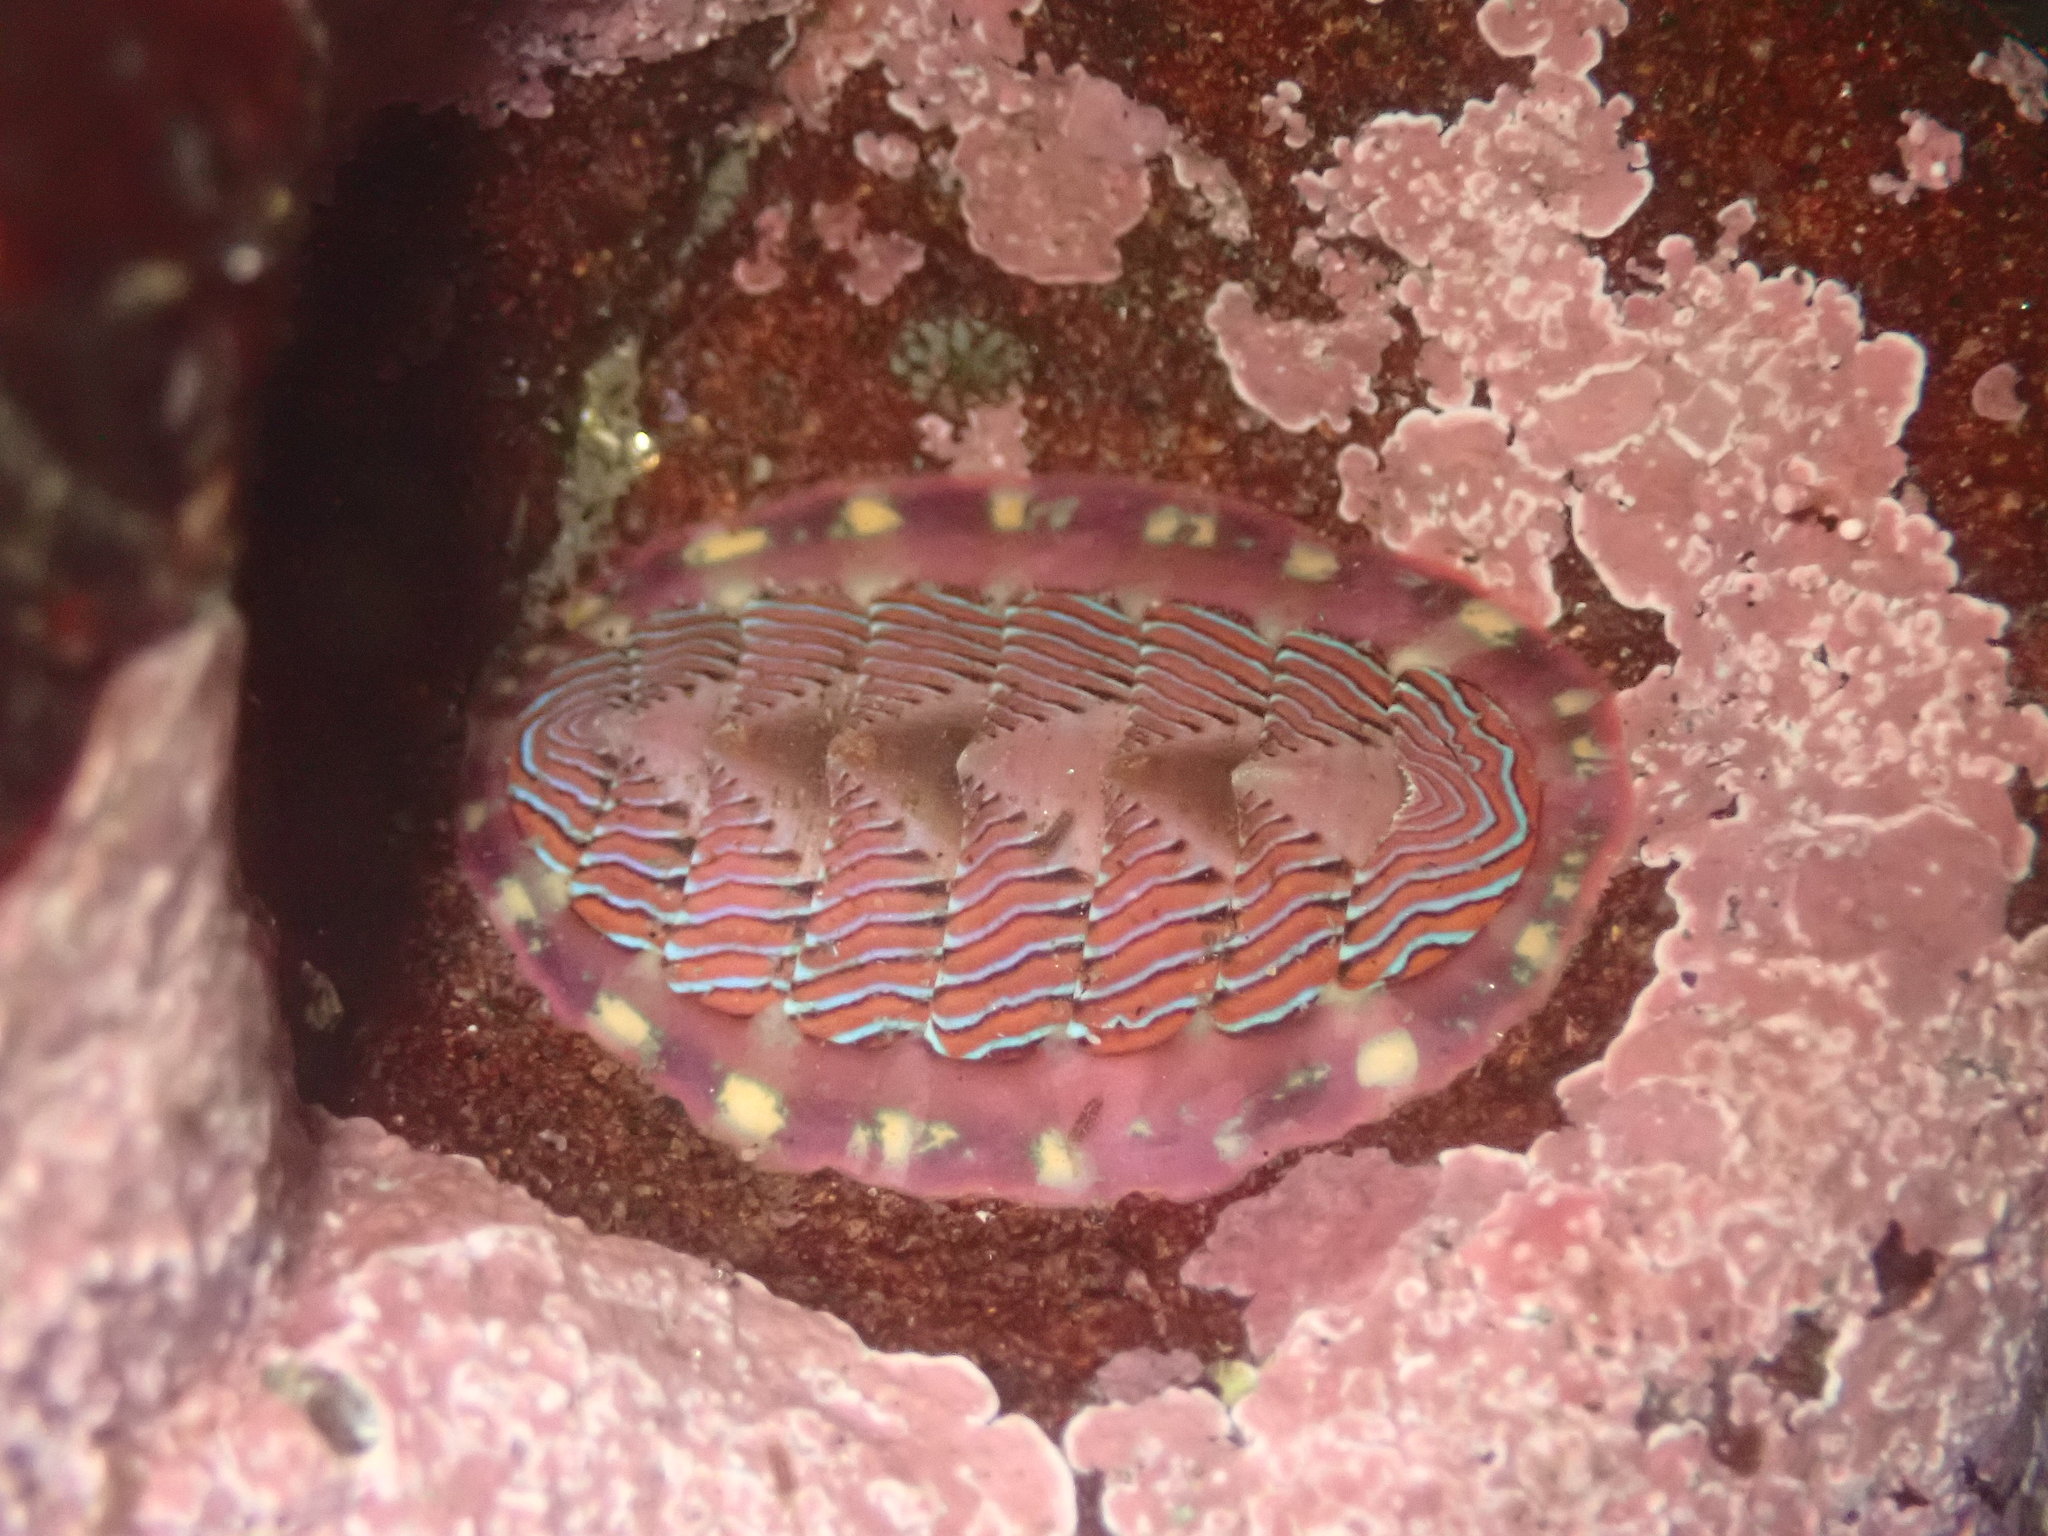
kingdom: Animalia
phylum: Mollusca
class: Polyplacophora
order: Chitonida
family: Tonicellidae
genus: Tonicella
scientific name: Tonicella lineata
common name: Lined chiton
